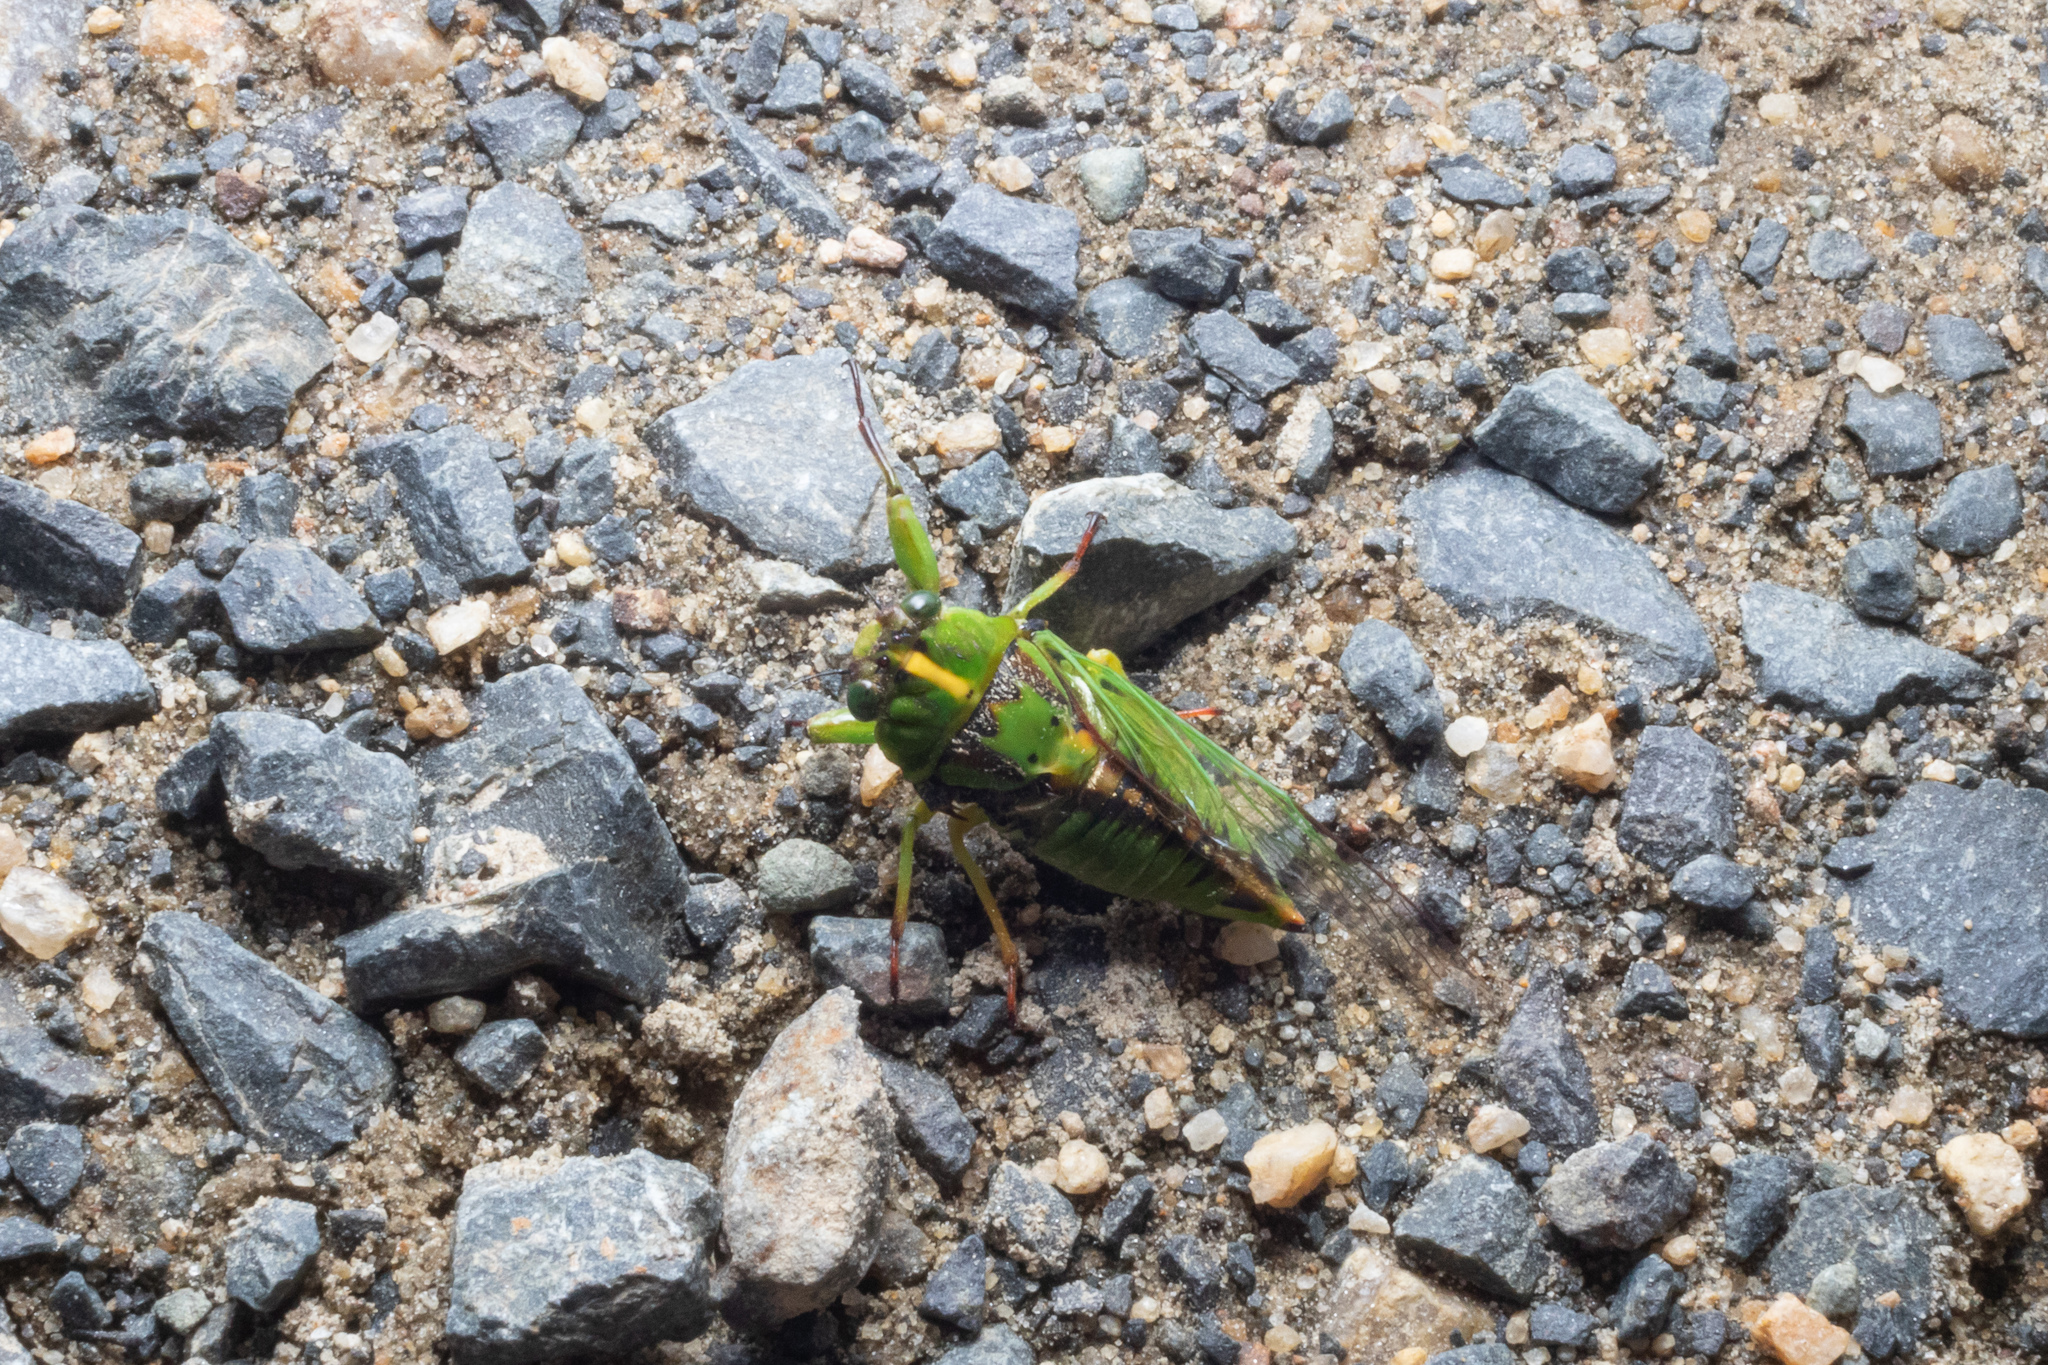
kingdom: Animalia
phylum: Arthropoda
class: Insecta
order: Hemiptera
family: Cicadidae
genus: Kikihia
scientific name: Kikihia subalpina
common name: Chathams cicada
